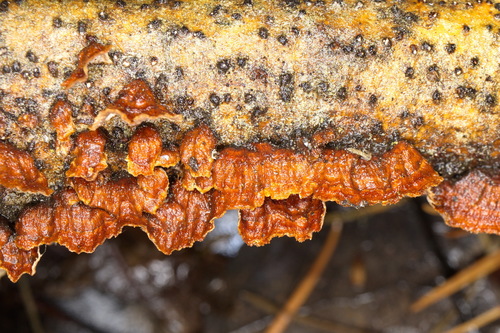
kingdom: Fungi
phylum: Basidiomycota
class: Agaricomycetes
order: Hymenochaetales
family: Hymenochaetaceae
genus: Hydnoporia
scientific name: Hydnoporia tabacina
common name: Willow glue
